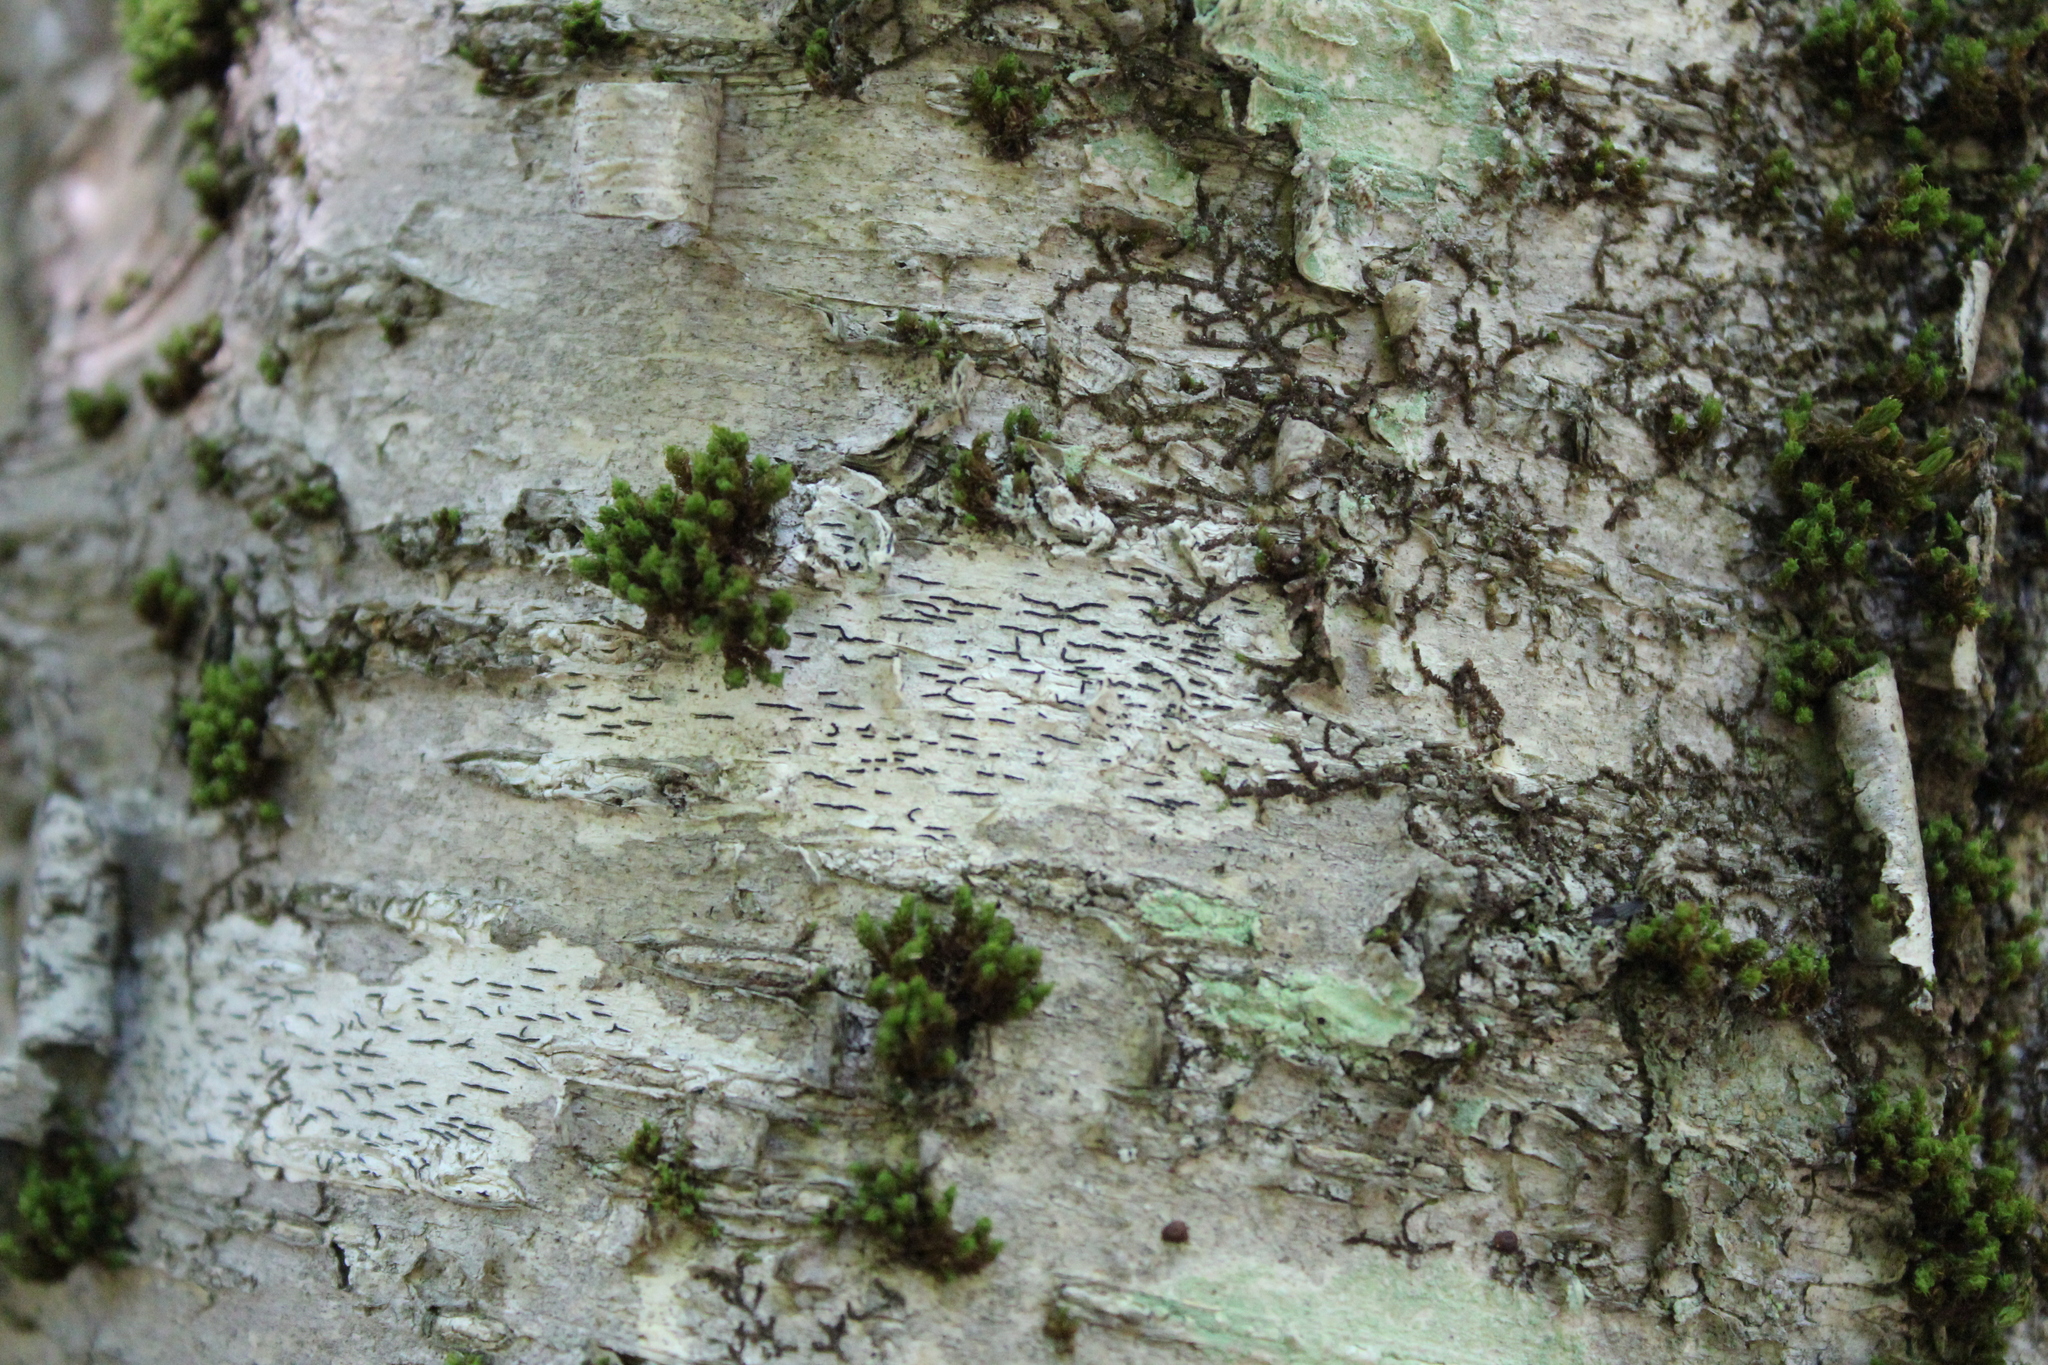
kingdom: Fungi
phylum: Ascomycota
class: Lecanoromycetes
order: Ostropales
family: Graphidaceae
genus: Graphis
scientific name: Graphis scripta
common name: Script lichen
